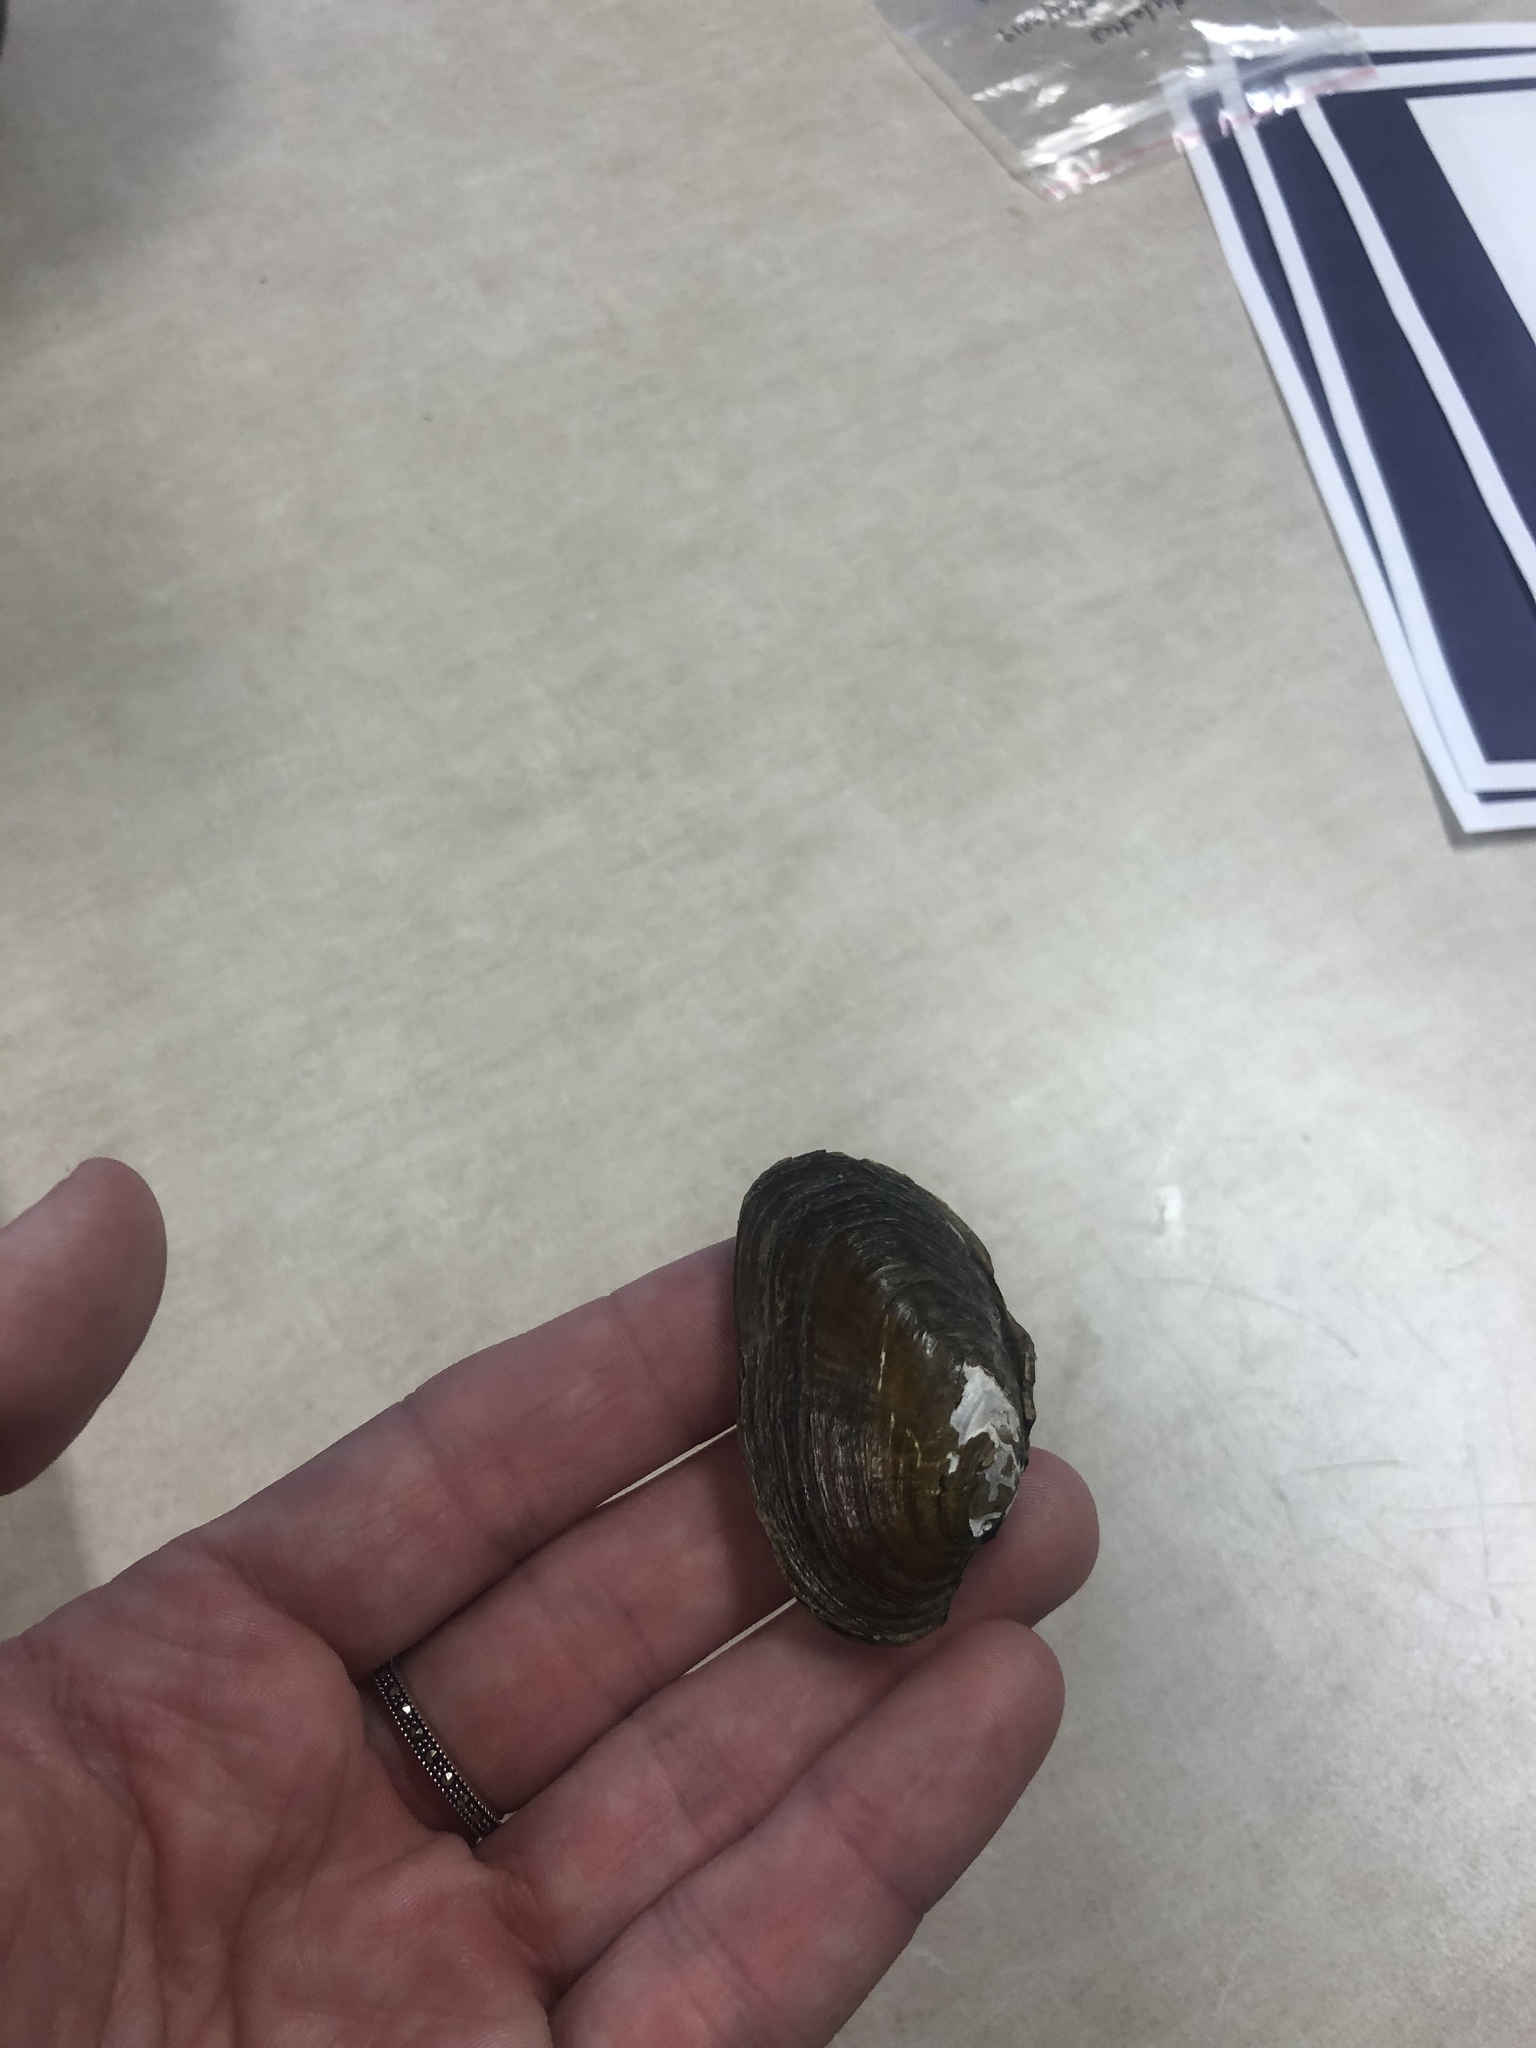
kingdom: Animalia
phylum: Mollusca
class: Bivalvia
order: Unionida
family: Unionidae
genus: Elliptio
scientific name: Elliptio complanata
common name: Eastern elliptio
